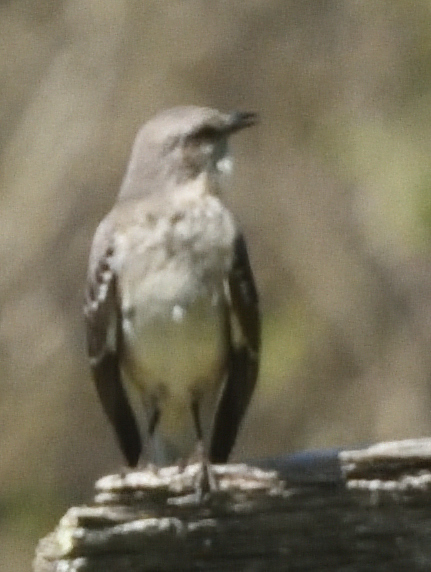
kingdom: Animalia
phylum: Chordata
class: Aves
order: Passeriformes
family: Mimidae
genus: Mimus
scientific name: Mimus polyglottos
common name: Northern mockingbird
